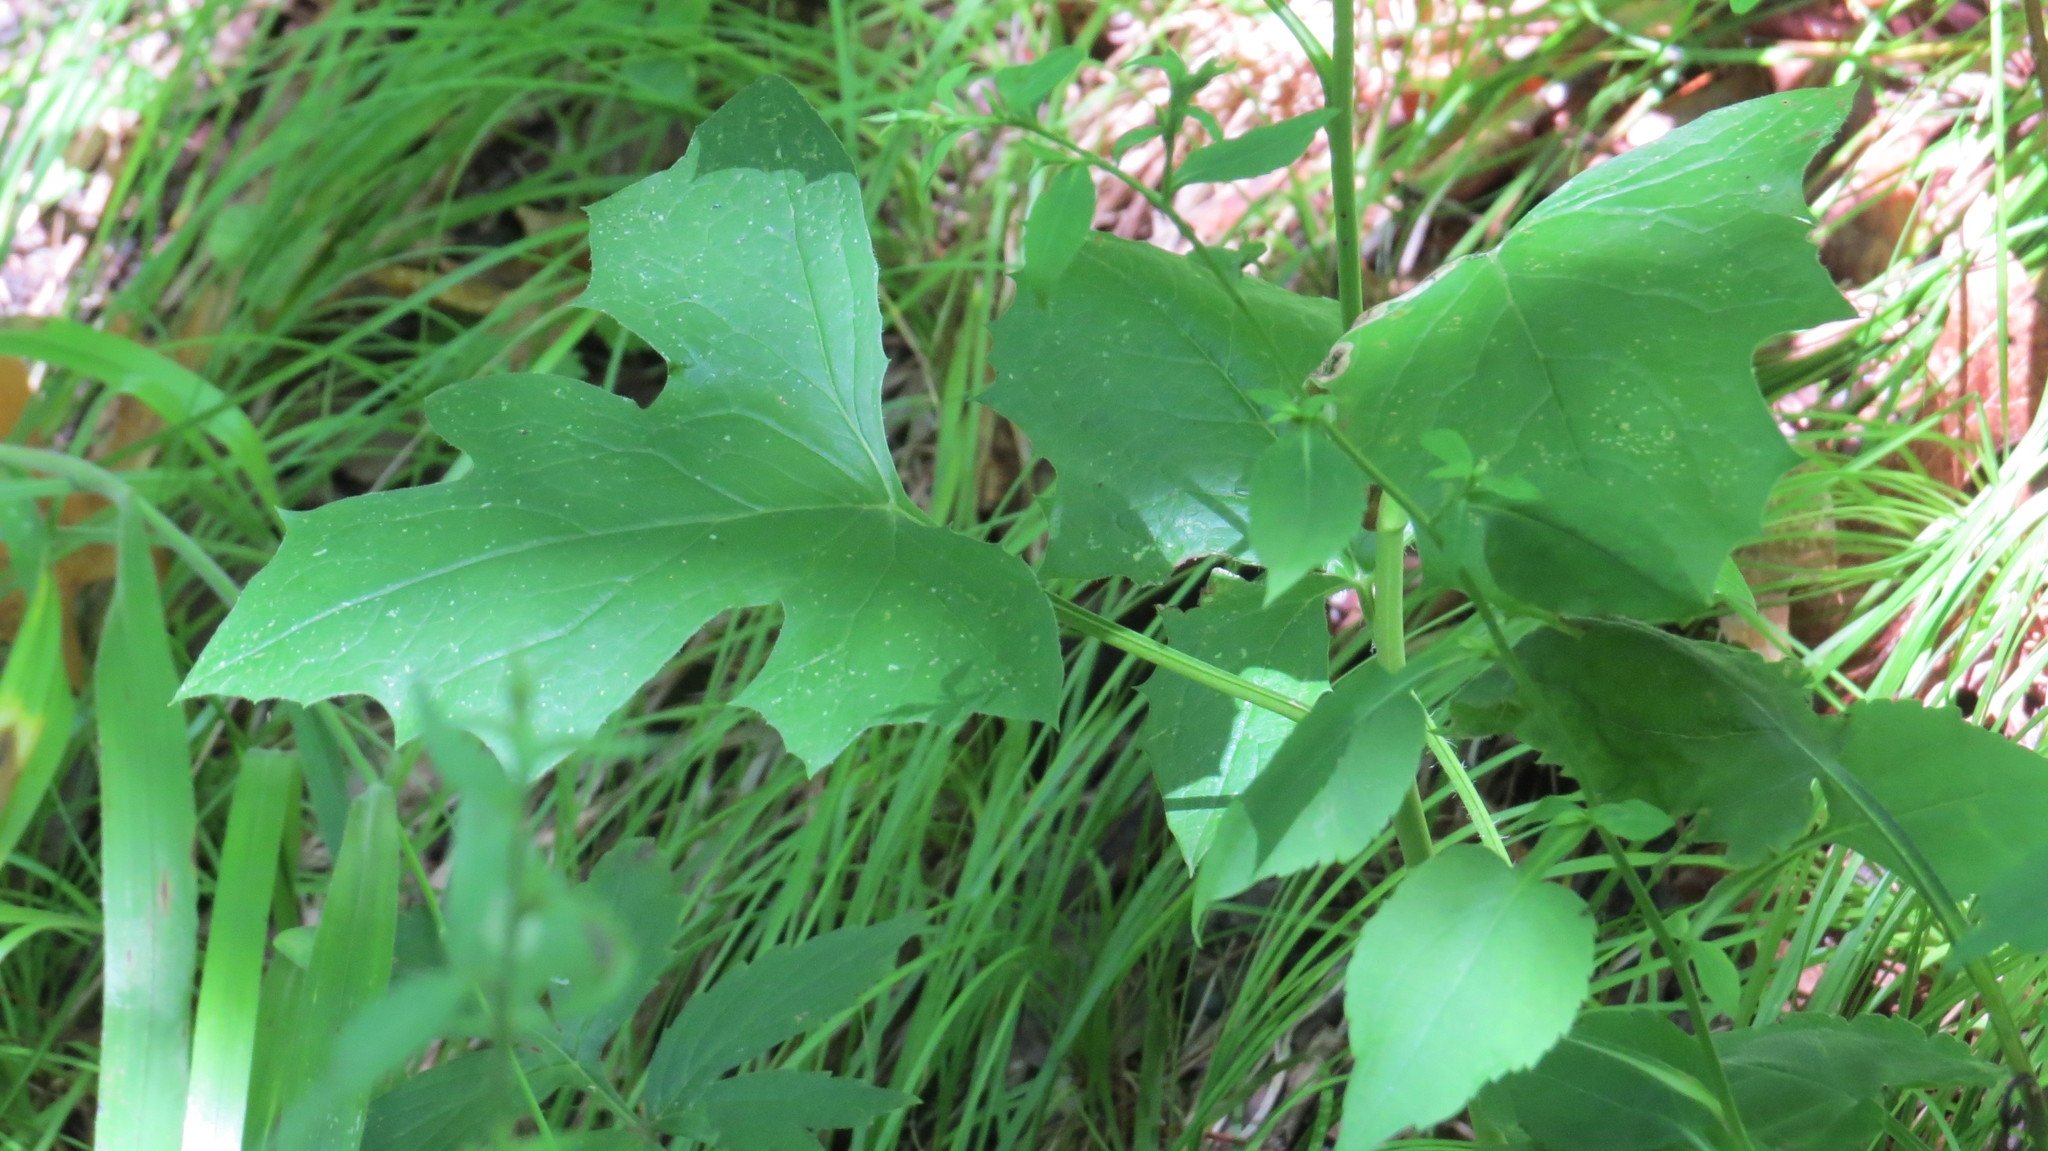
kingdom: Plantae
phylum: Tracheophyta
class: Magnoliopsida
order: Asterales
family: Asteraceae
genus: Nabalus
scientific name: Nabalus albus
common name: White rattlesnakeroot
